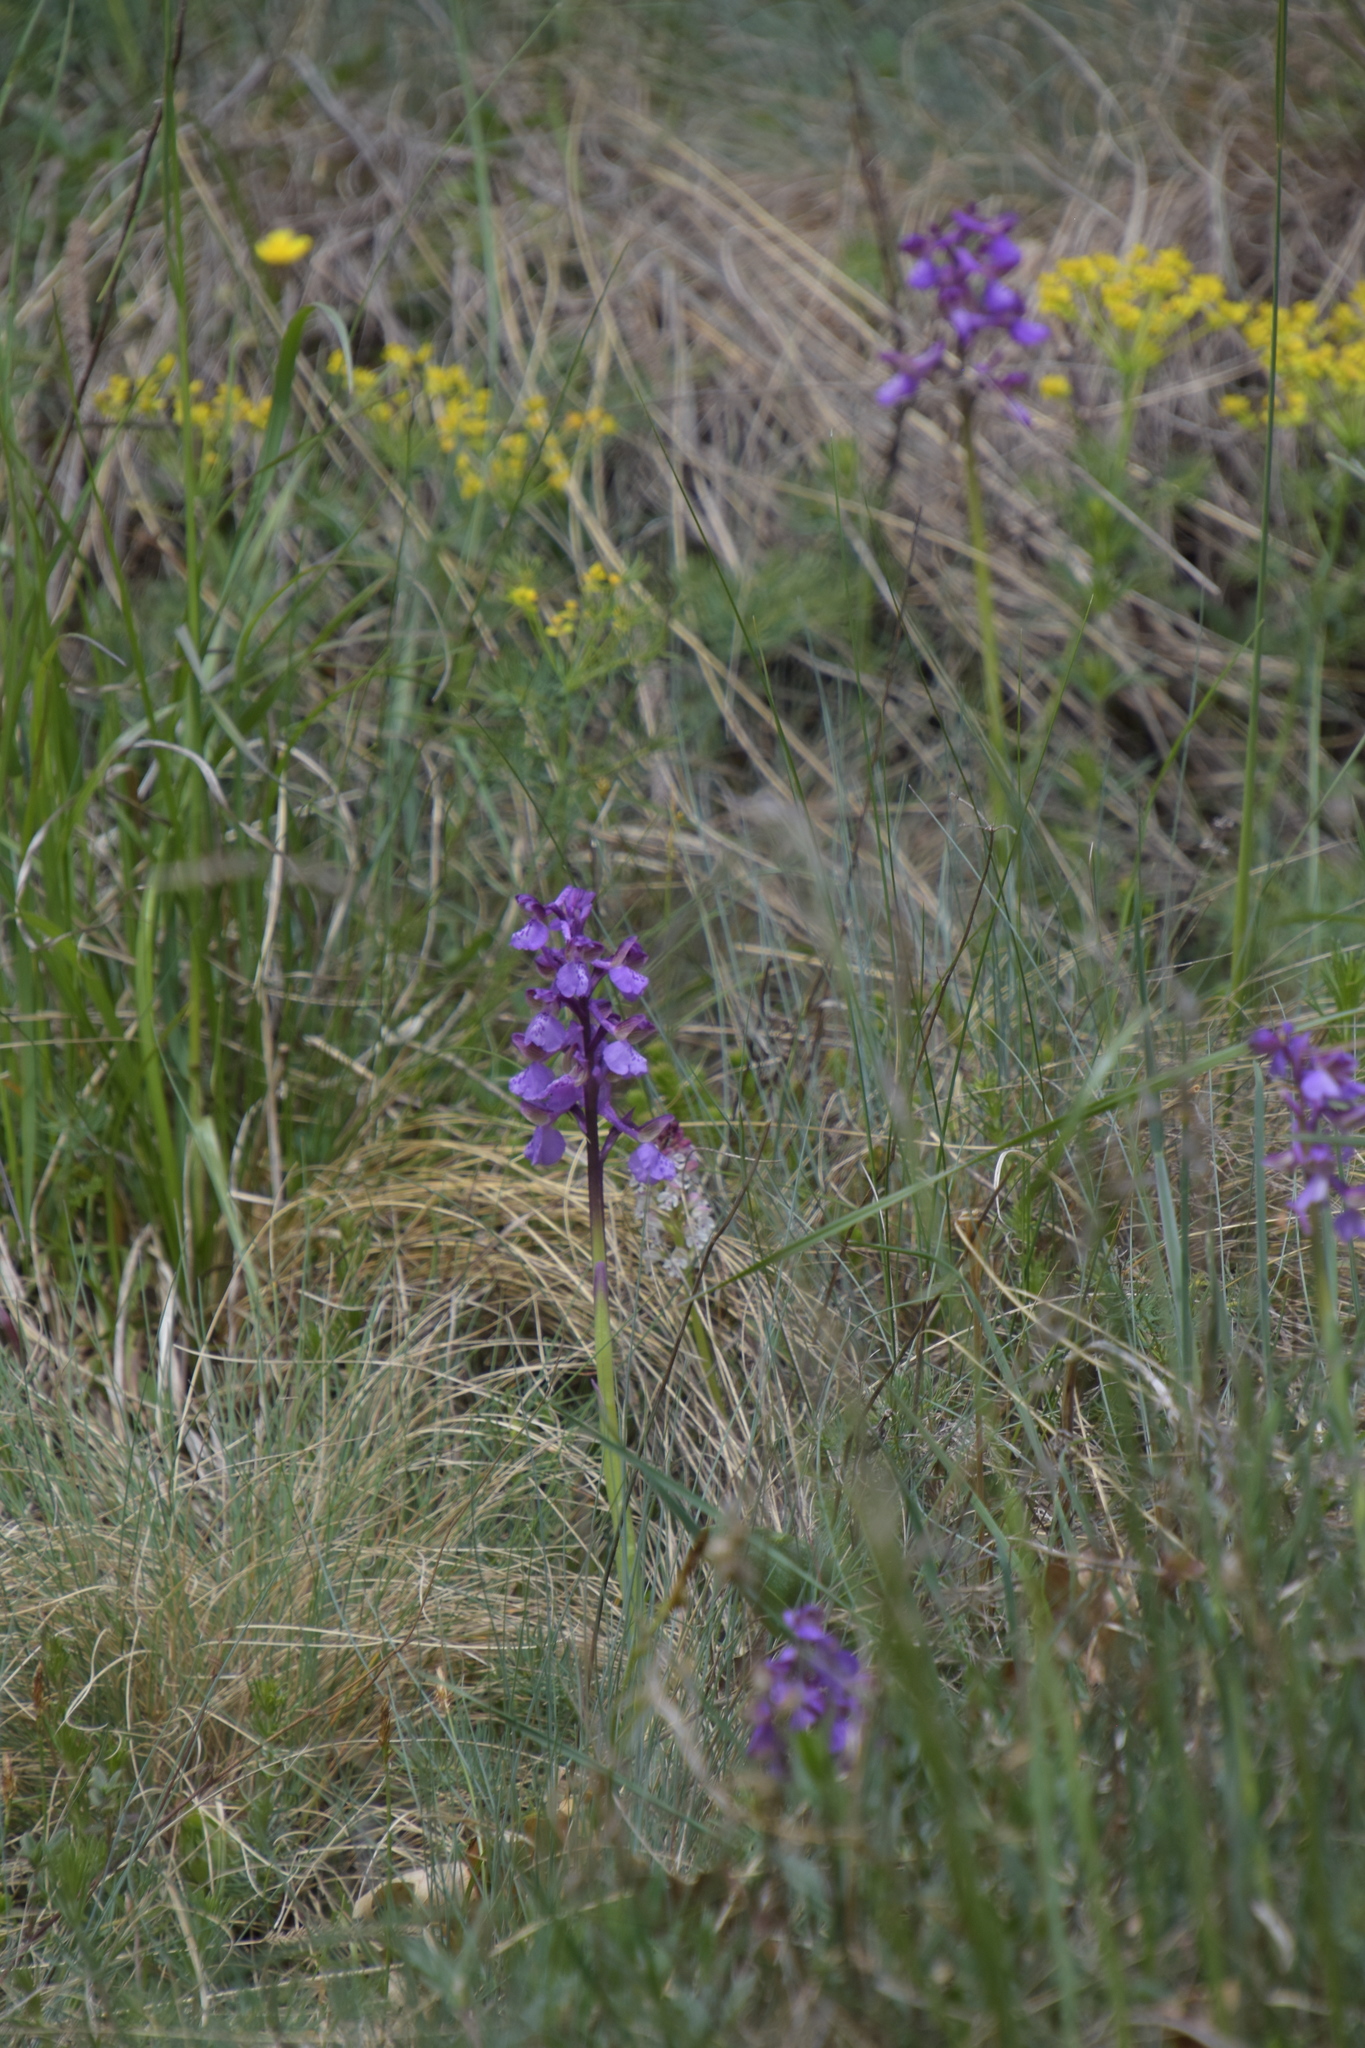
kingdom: Plantae
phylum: Tracheophyta
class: Liliopsida
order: Asparagales
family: Orchidaceae
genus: Anacamptis
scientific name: Anacamptis morio
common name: Green-winged orchid
